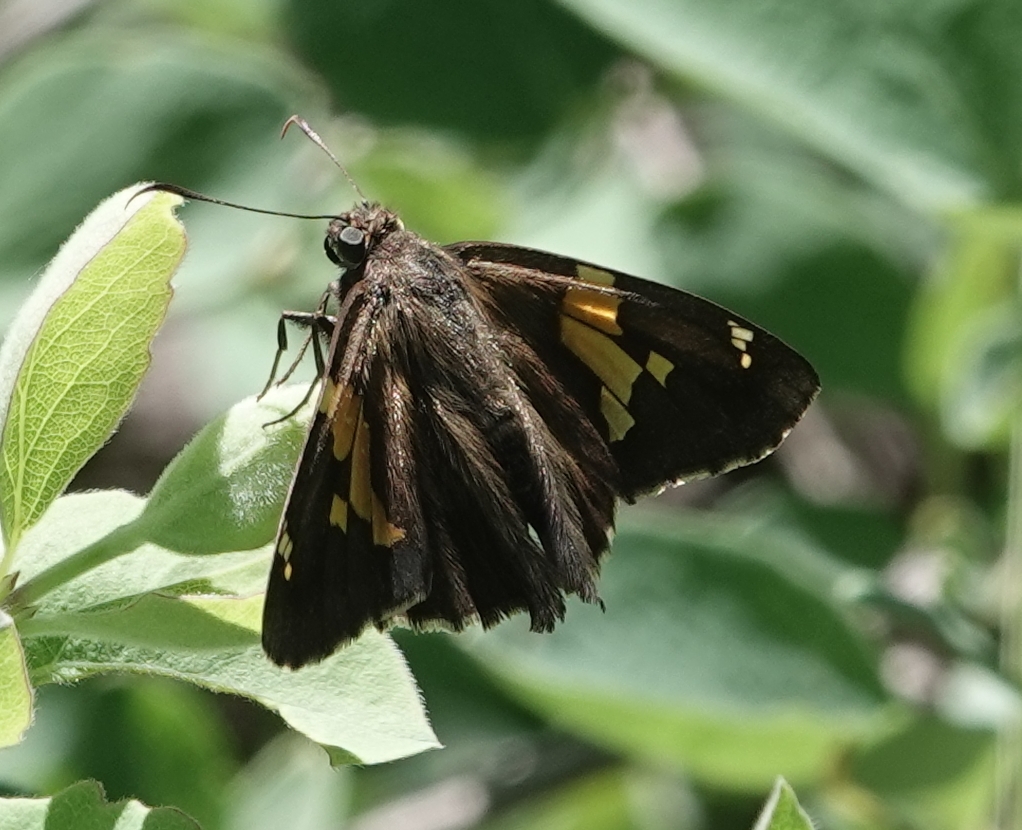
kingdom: Animalia
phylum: Arthropoda
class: Insecta
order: Lepidoptera
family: Hesperiidae
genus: Epargyreus
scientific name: Epargyreus clarus
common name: Silver-spotted skipper
